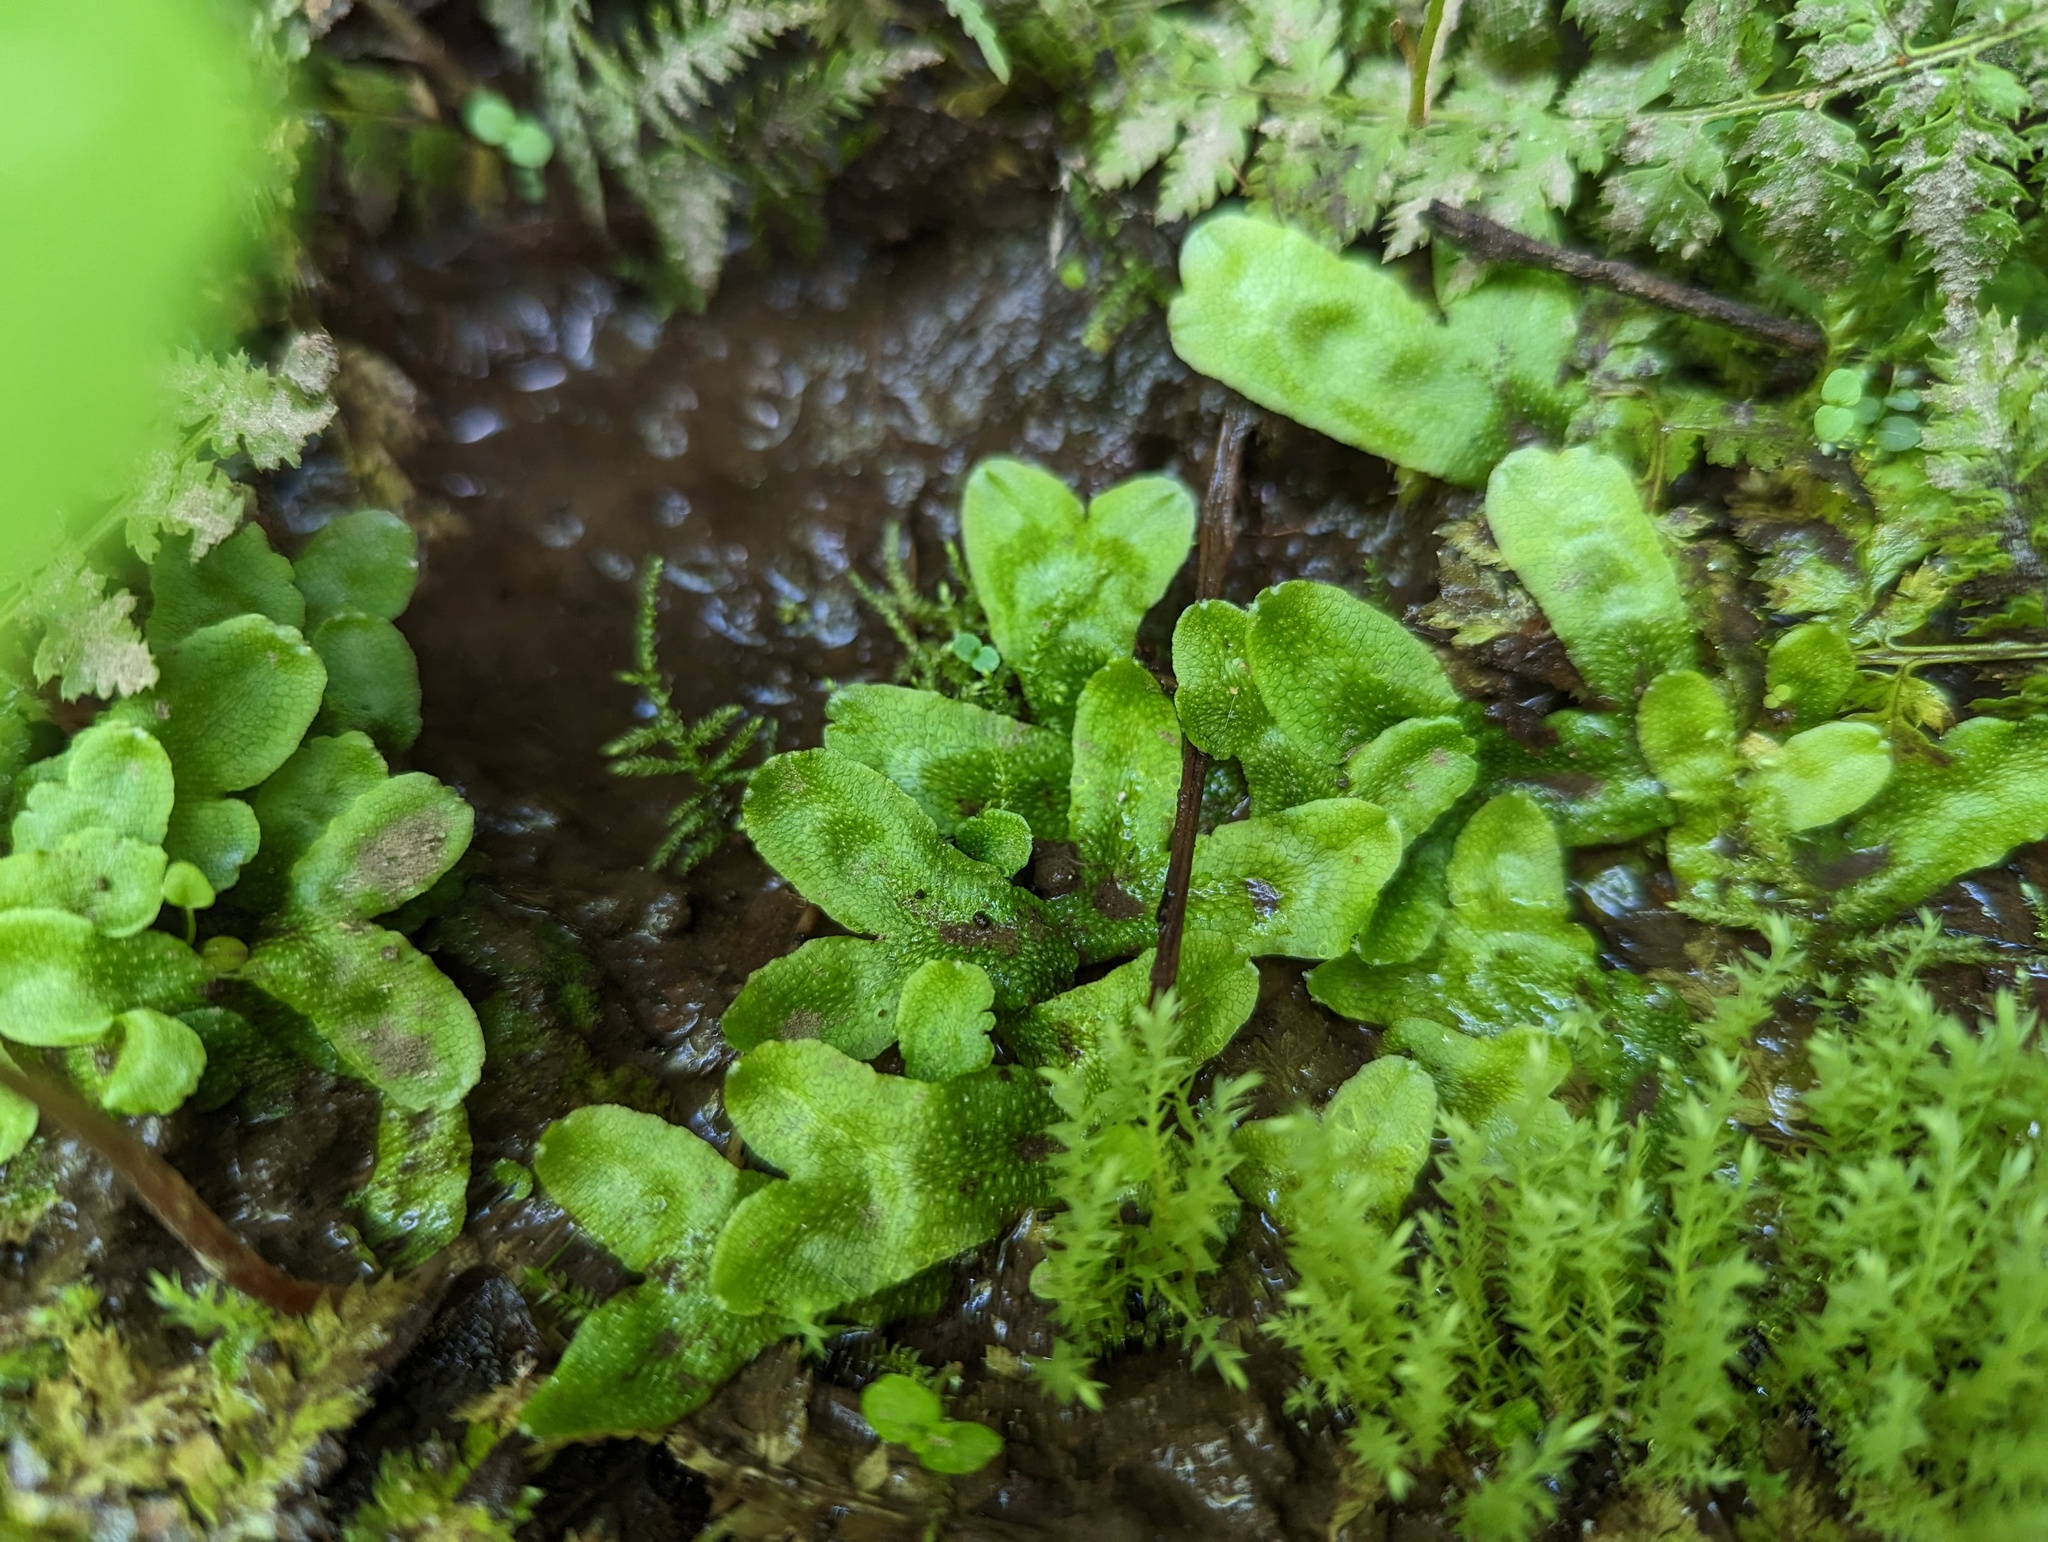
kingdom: Plantae
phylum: Marchantiophyta
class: Marchantiopsida
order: Marchantiales
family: Conocephalaceae
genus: Conocephalum
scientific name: Conocephalum salebrosum
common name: Cat-tongue liverwort
